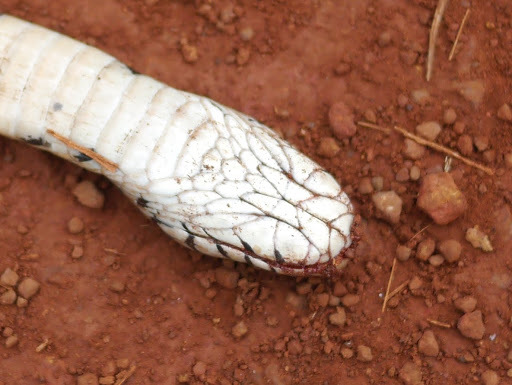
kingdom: Animalia
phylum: Chordata
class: Squamata
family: Elapidae
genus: Naja
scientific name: Naja subfulva
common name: Brown forest cobra
